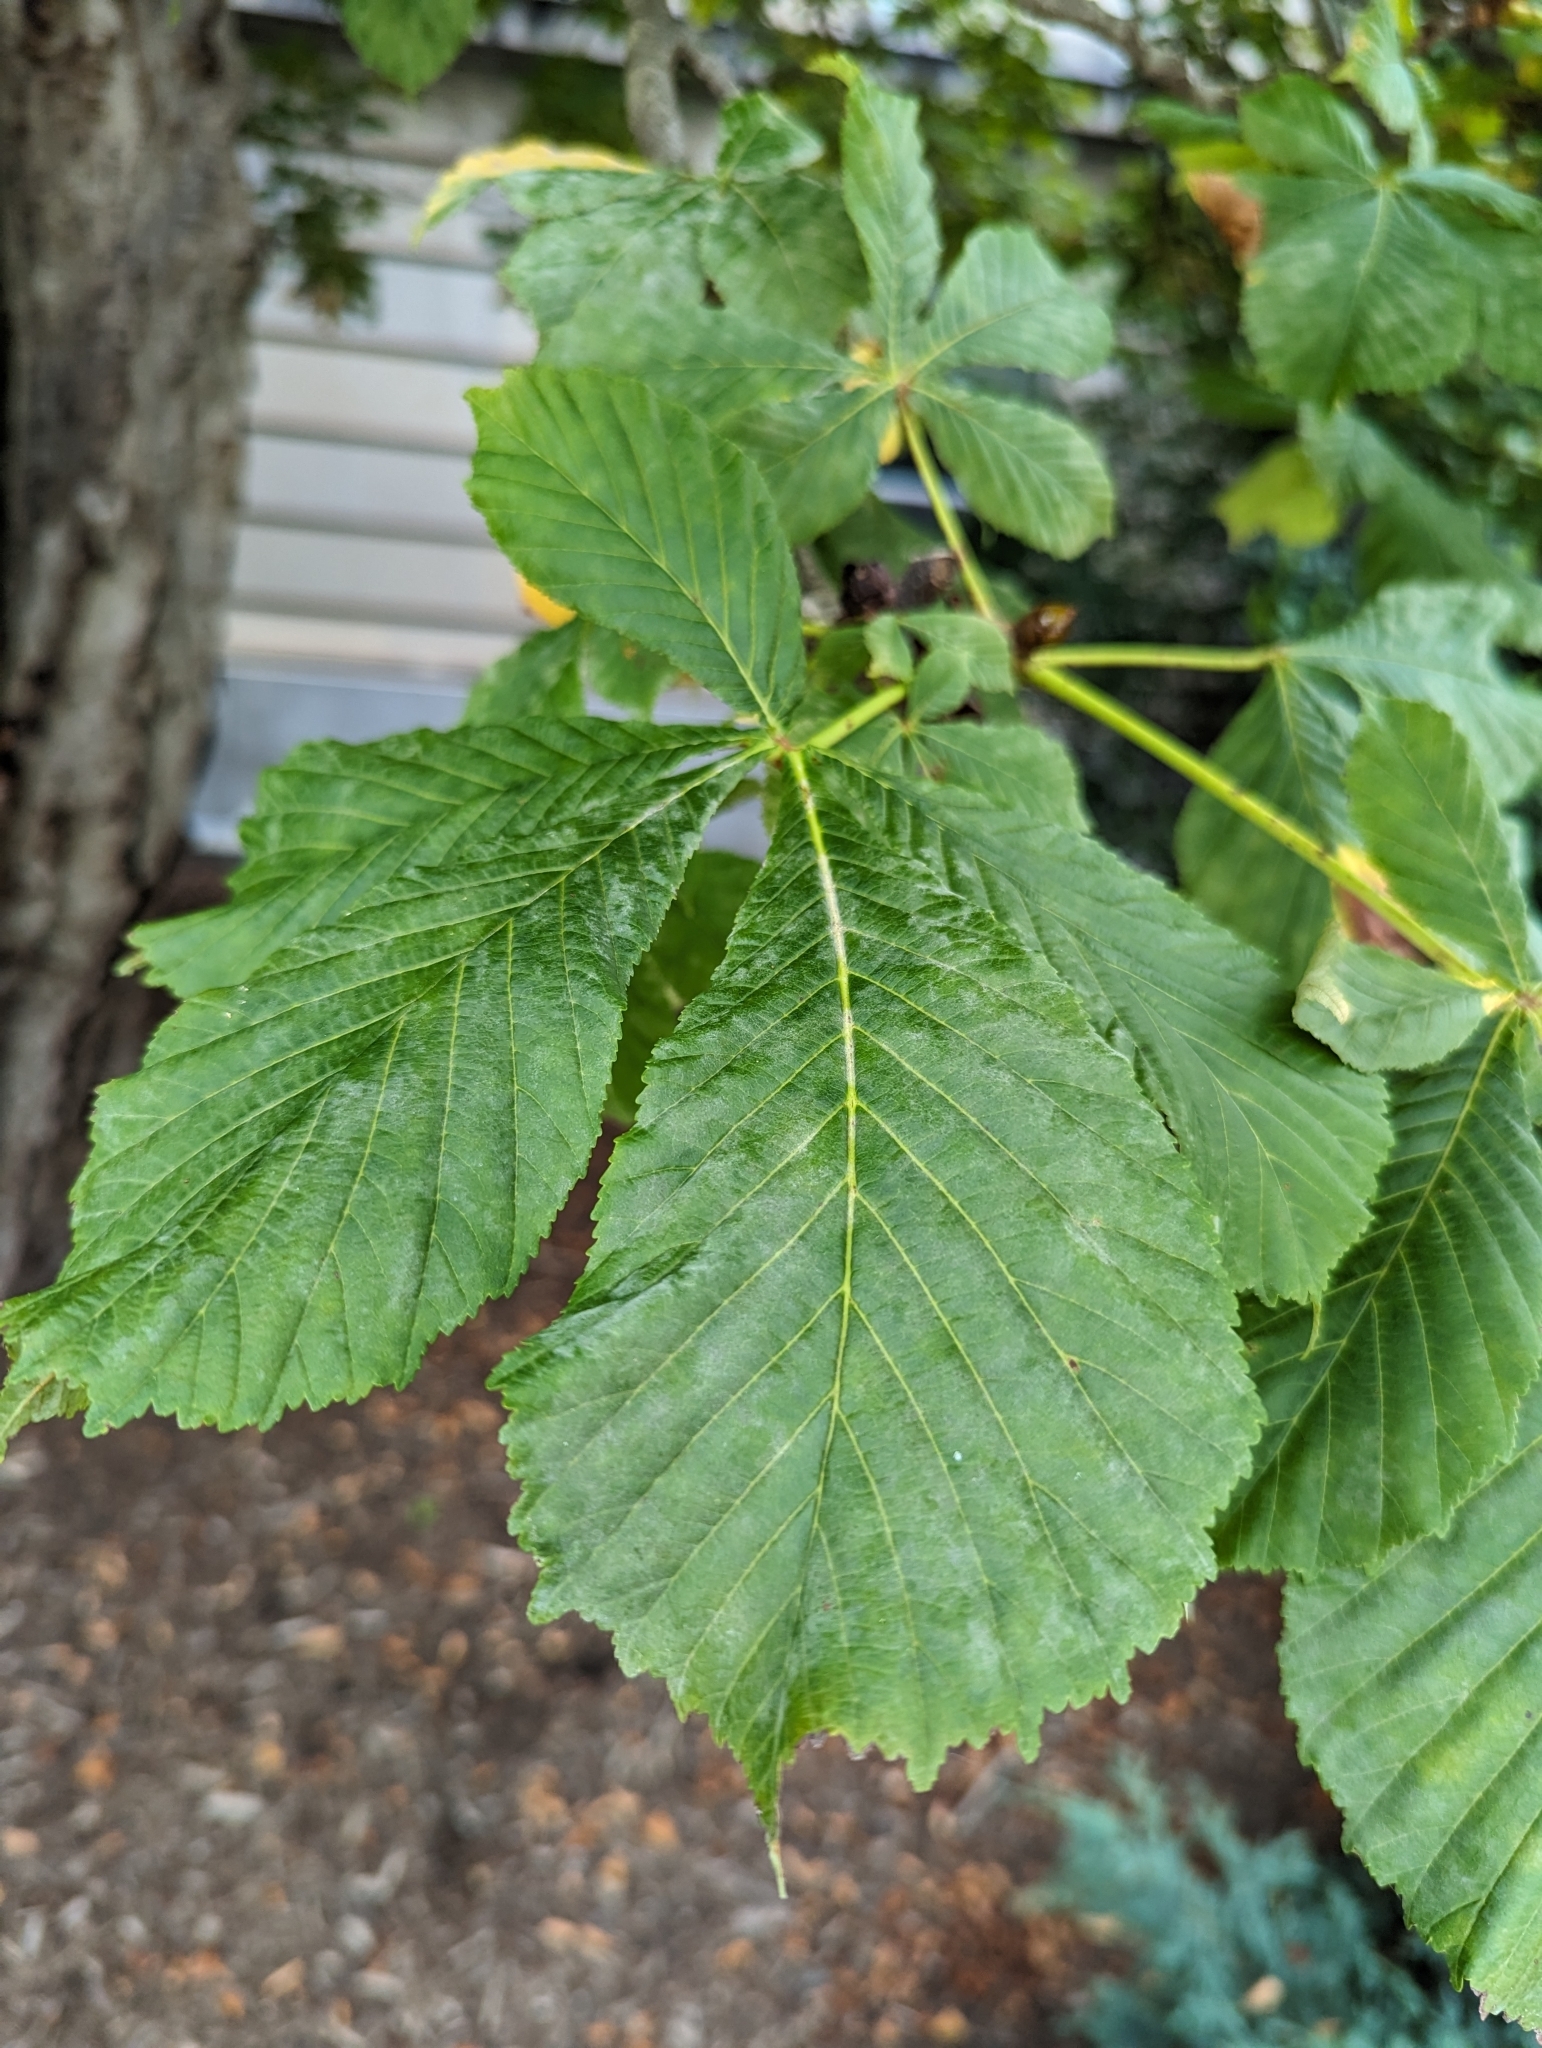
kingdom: Fungi
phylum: Ascomycota
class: Leotiomycetes
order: Helotiales
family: Erysiphaceae
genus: Erysiphe
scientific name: Erysiphe flexuosa
